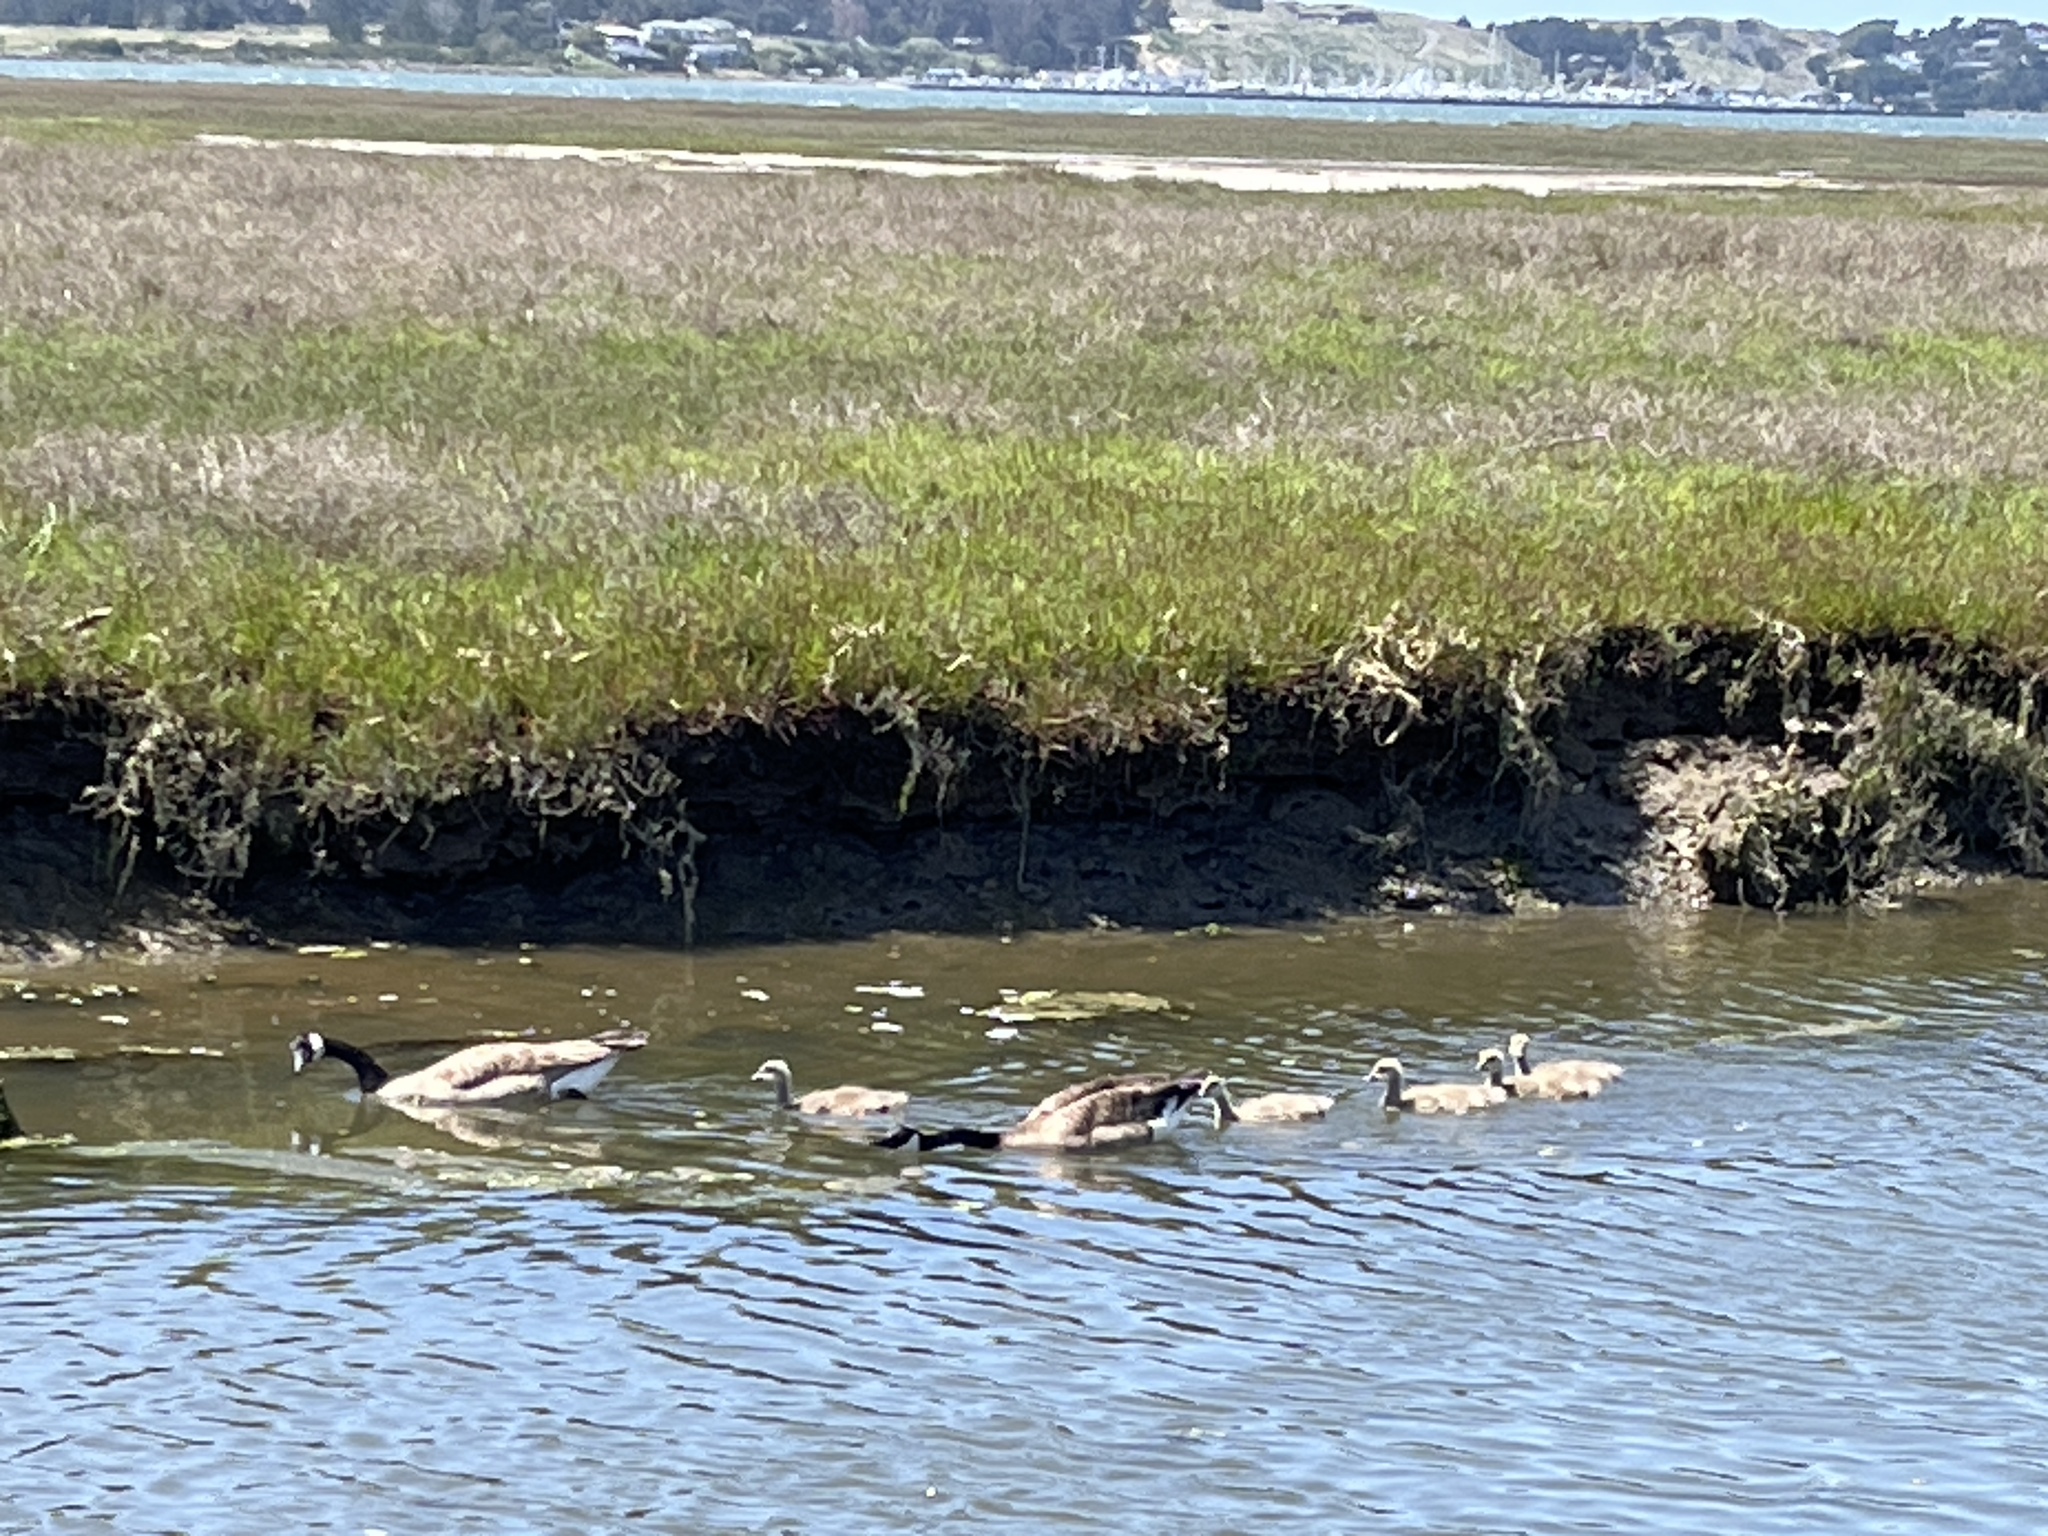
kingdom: Animalia
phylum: Chordata
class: Aves
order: Anseriformes
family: Anatidae
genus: Branta
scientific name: Branta canadensis
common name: Canada goose
